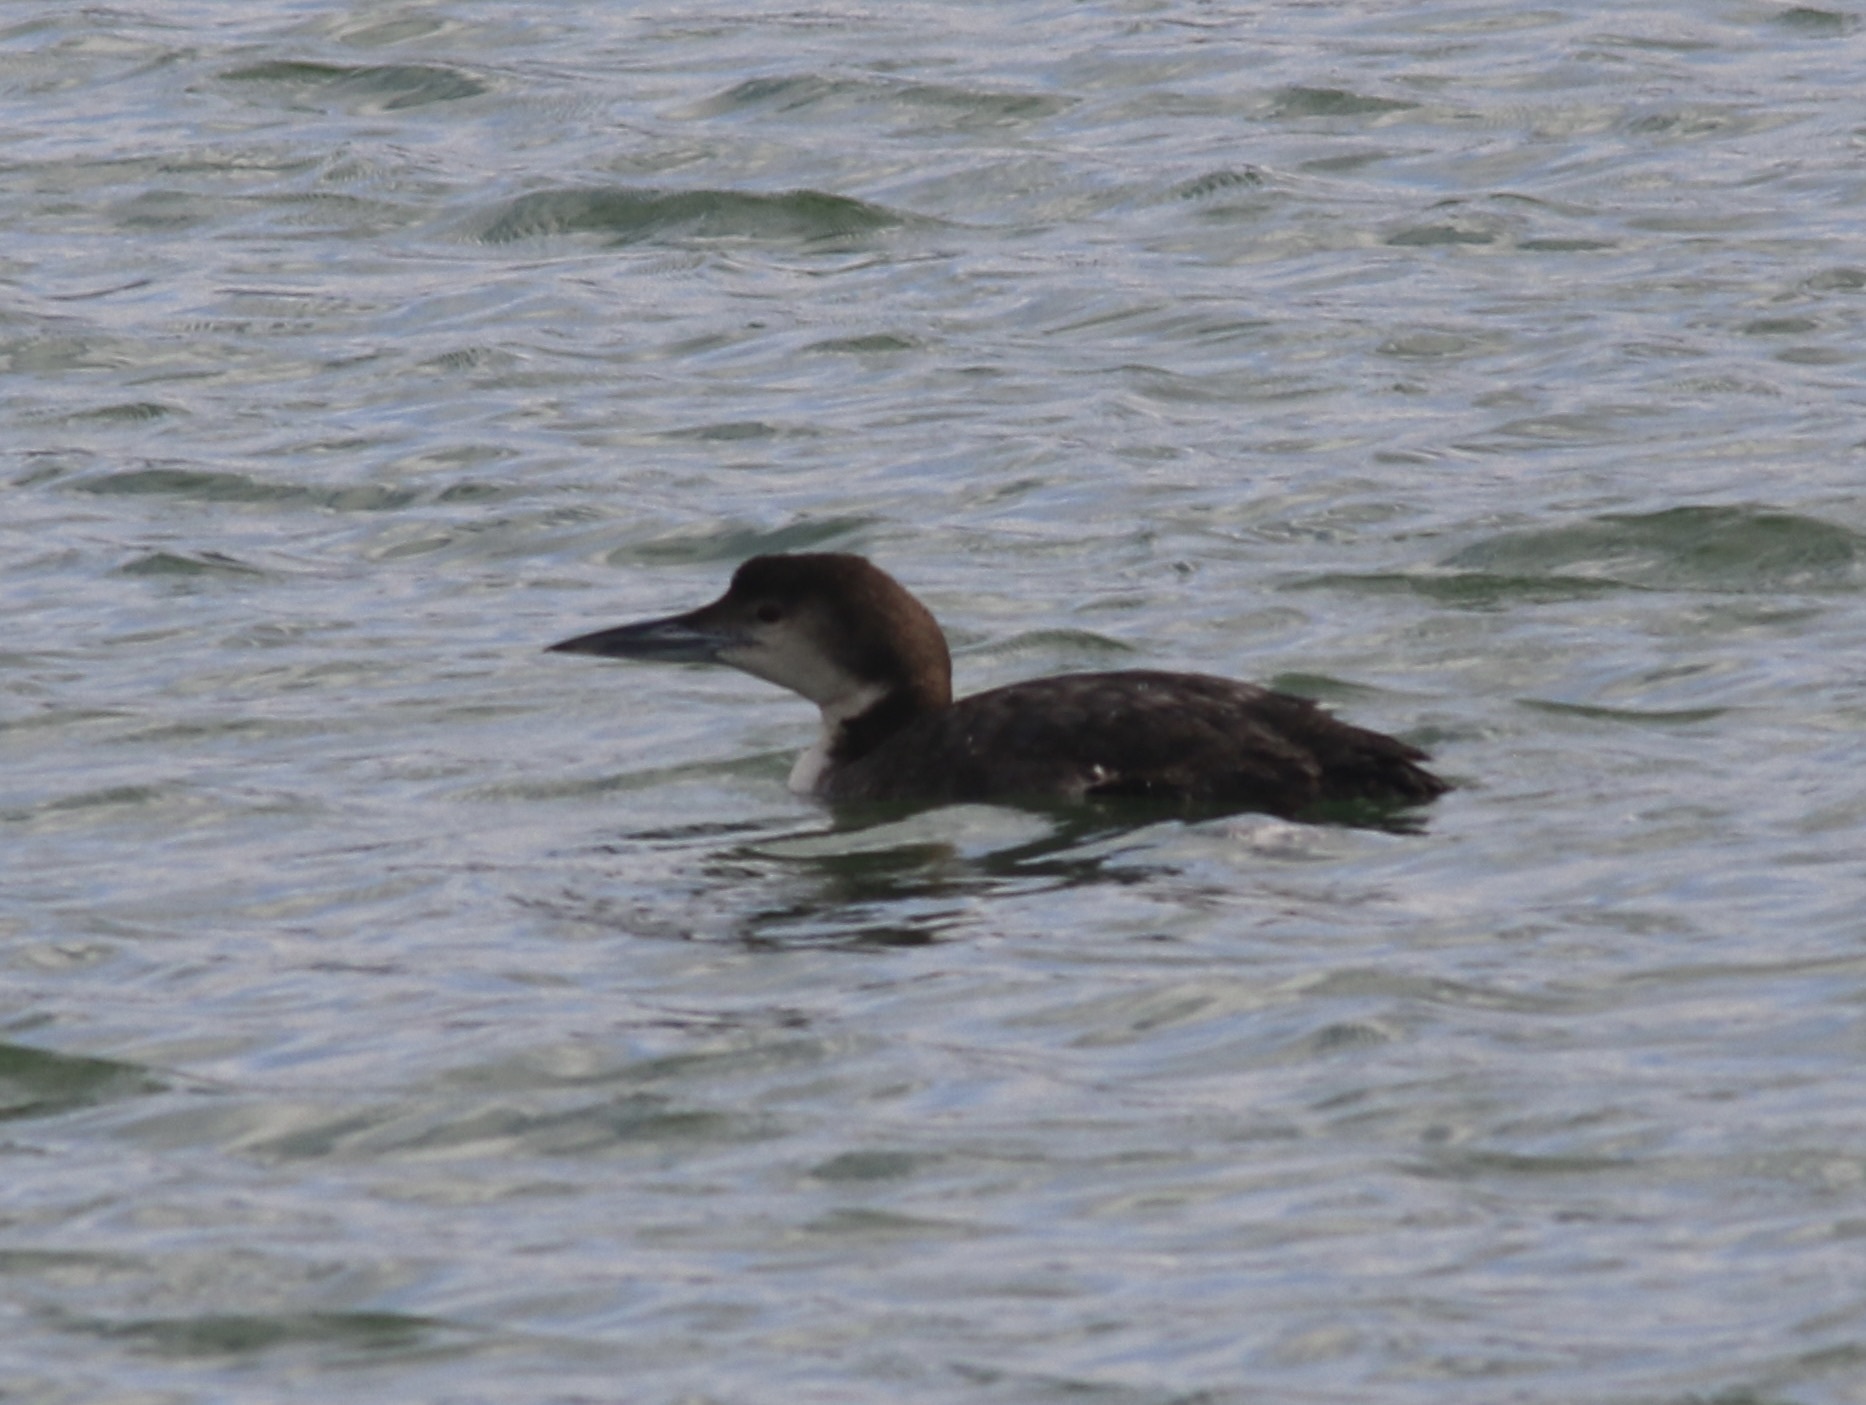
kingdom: Animalia
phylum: Chordata
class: Aves
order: Gaviiformes
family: Gaviidae
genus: Gavia
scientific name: Gavia immer
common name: Common loon
